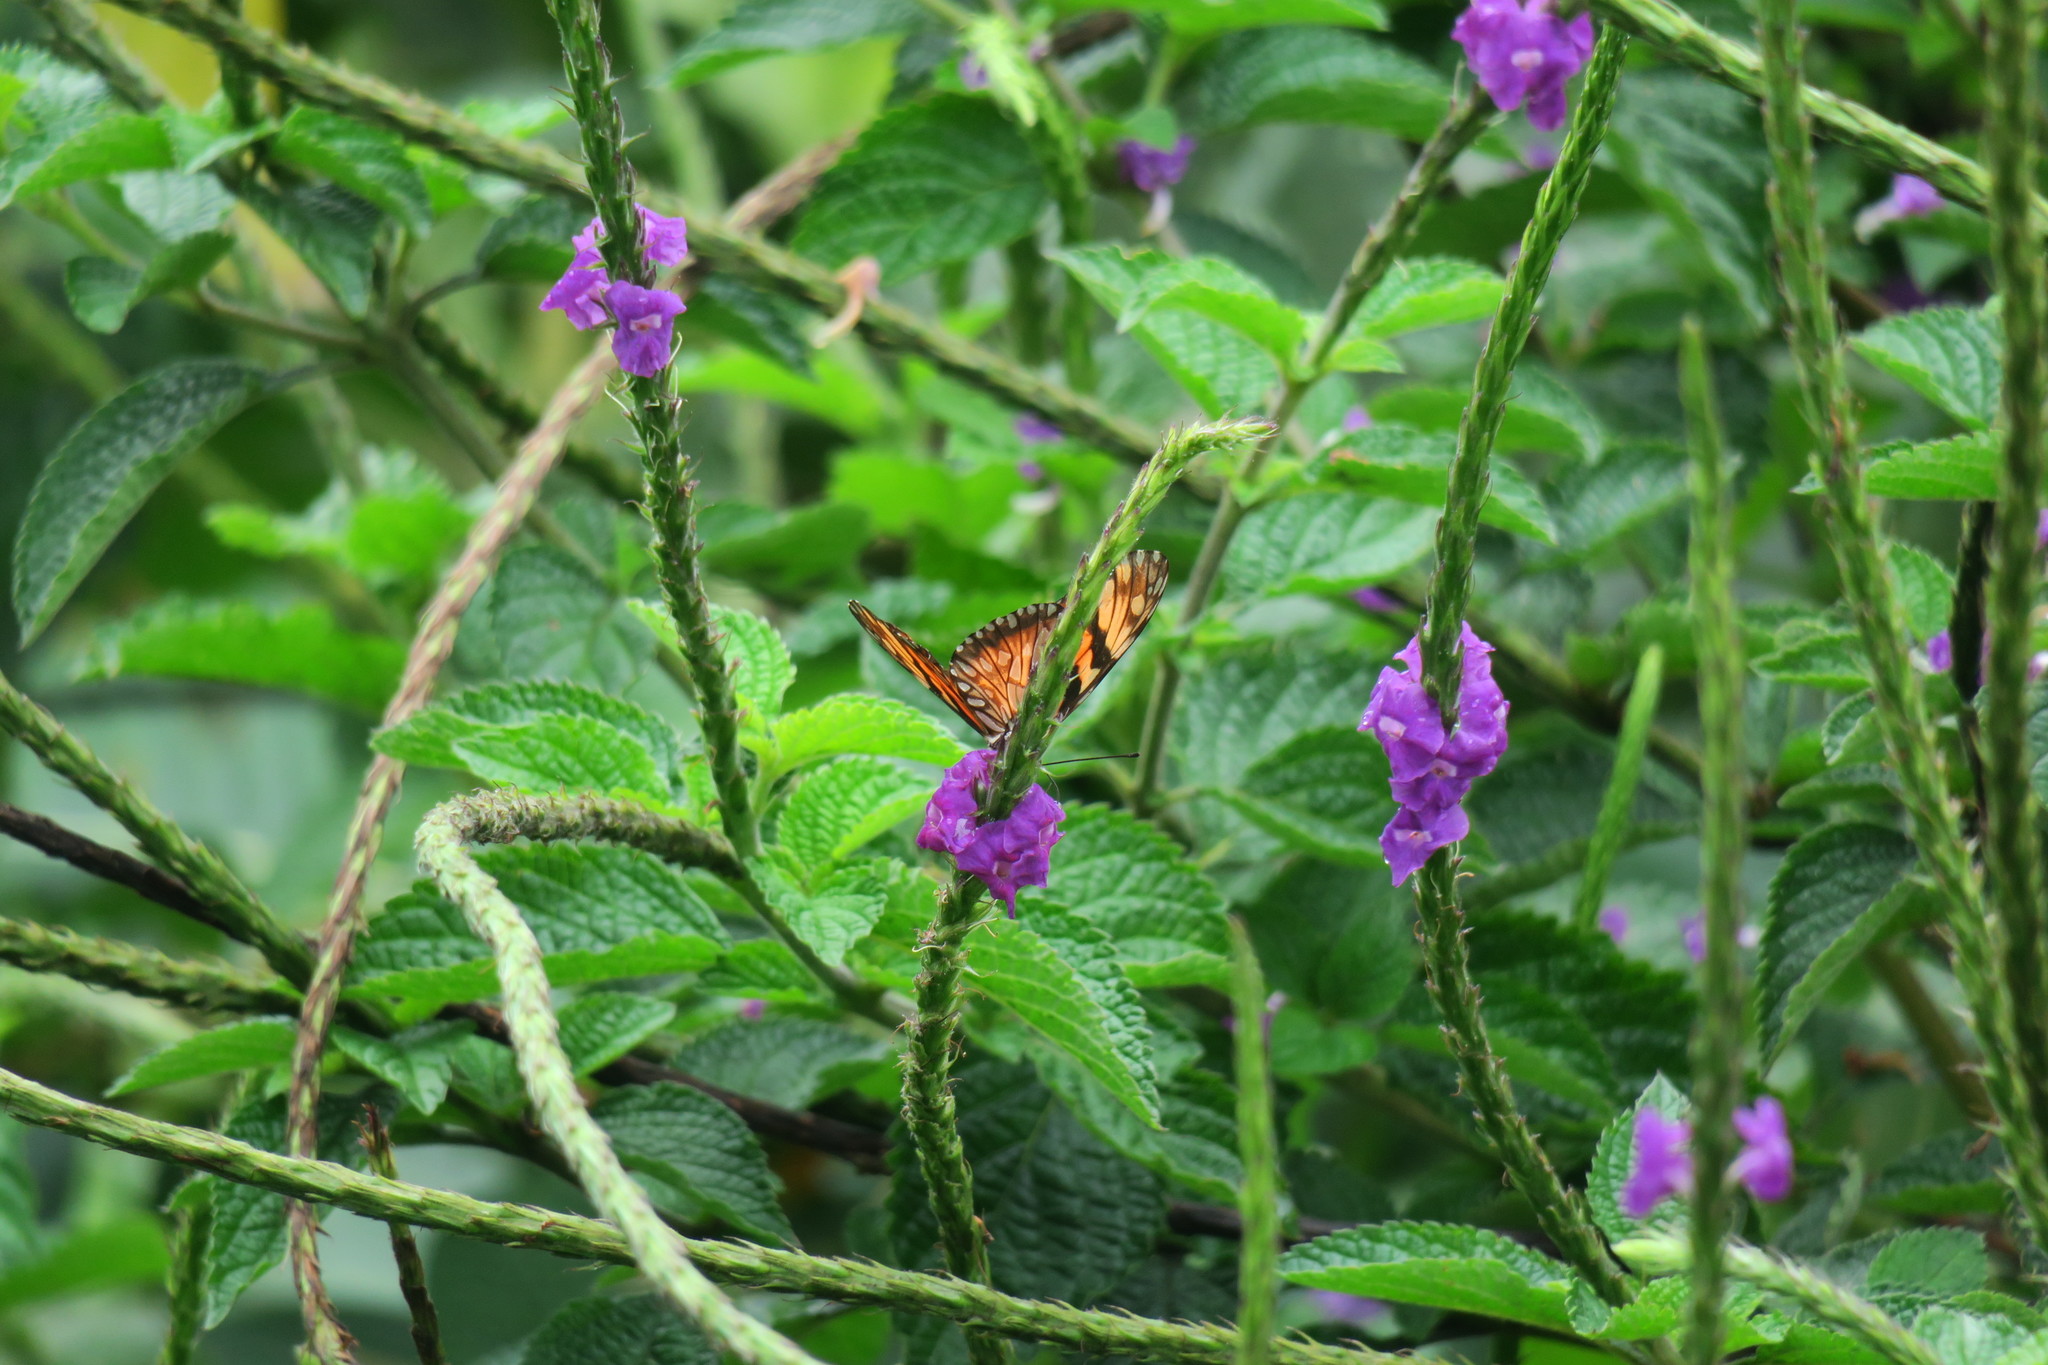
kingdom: Animalia
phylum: Arthropoda
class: Insecta
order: Lepidoptera
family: Nymphalidae
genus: Dione
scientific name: Dione juno
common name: Juno silverspot
